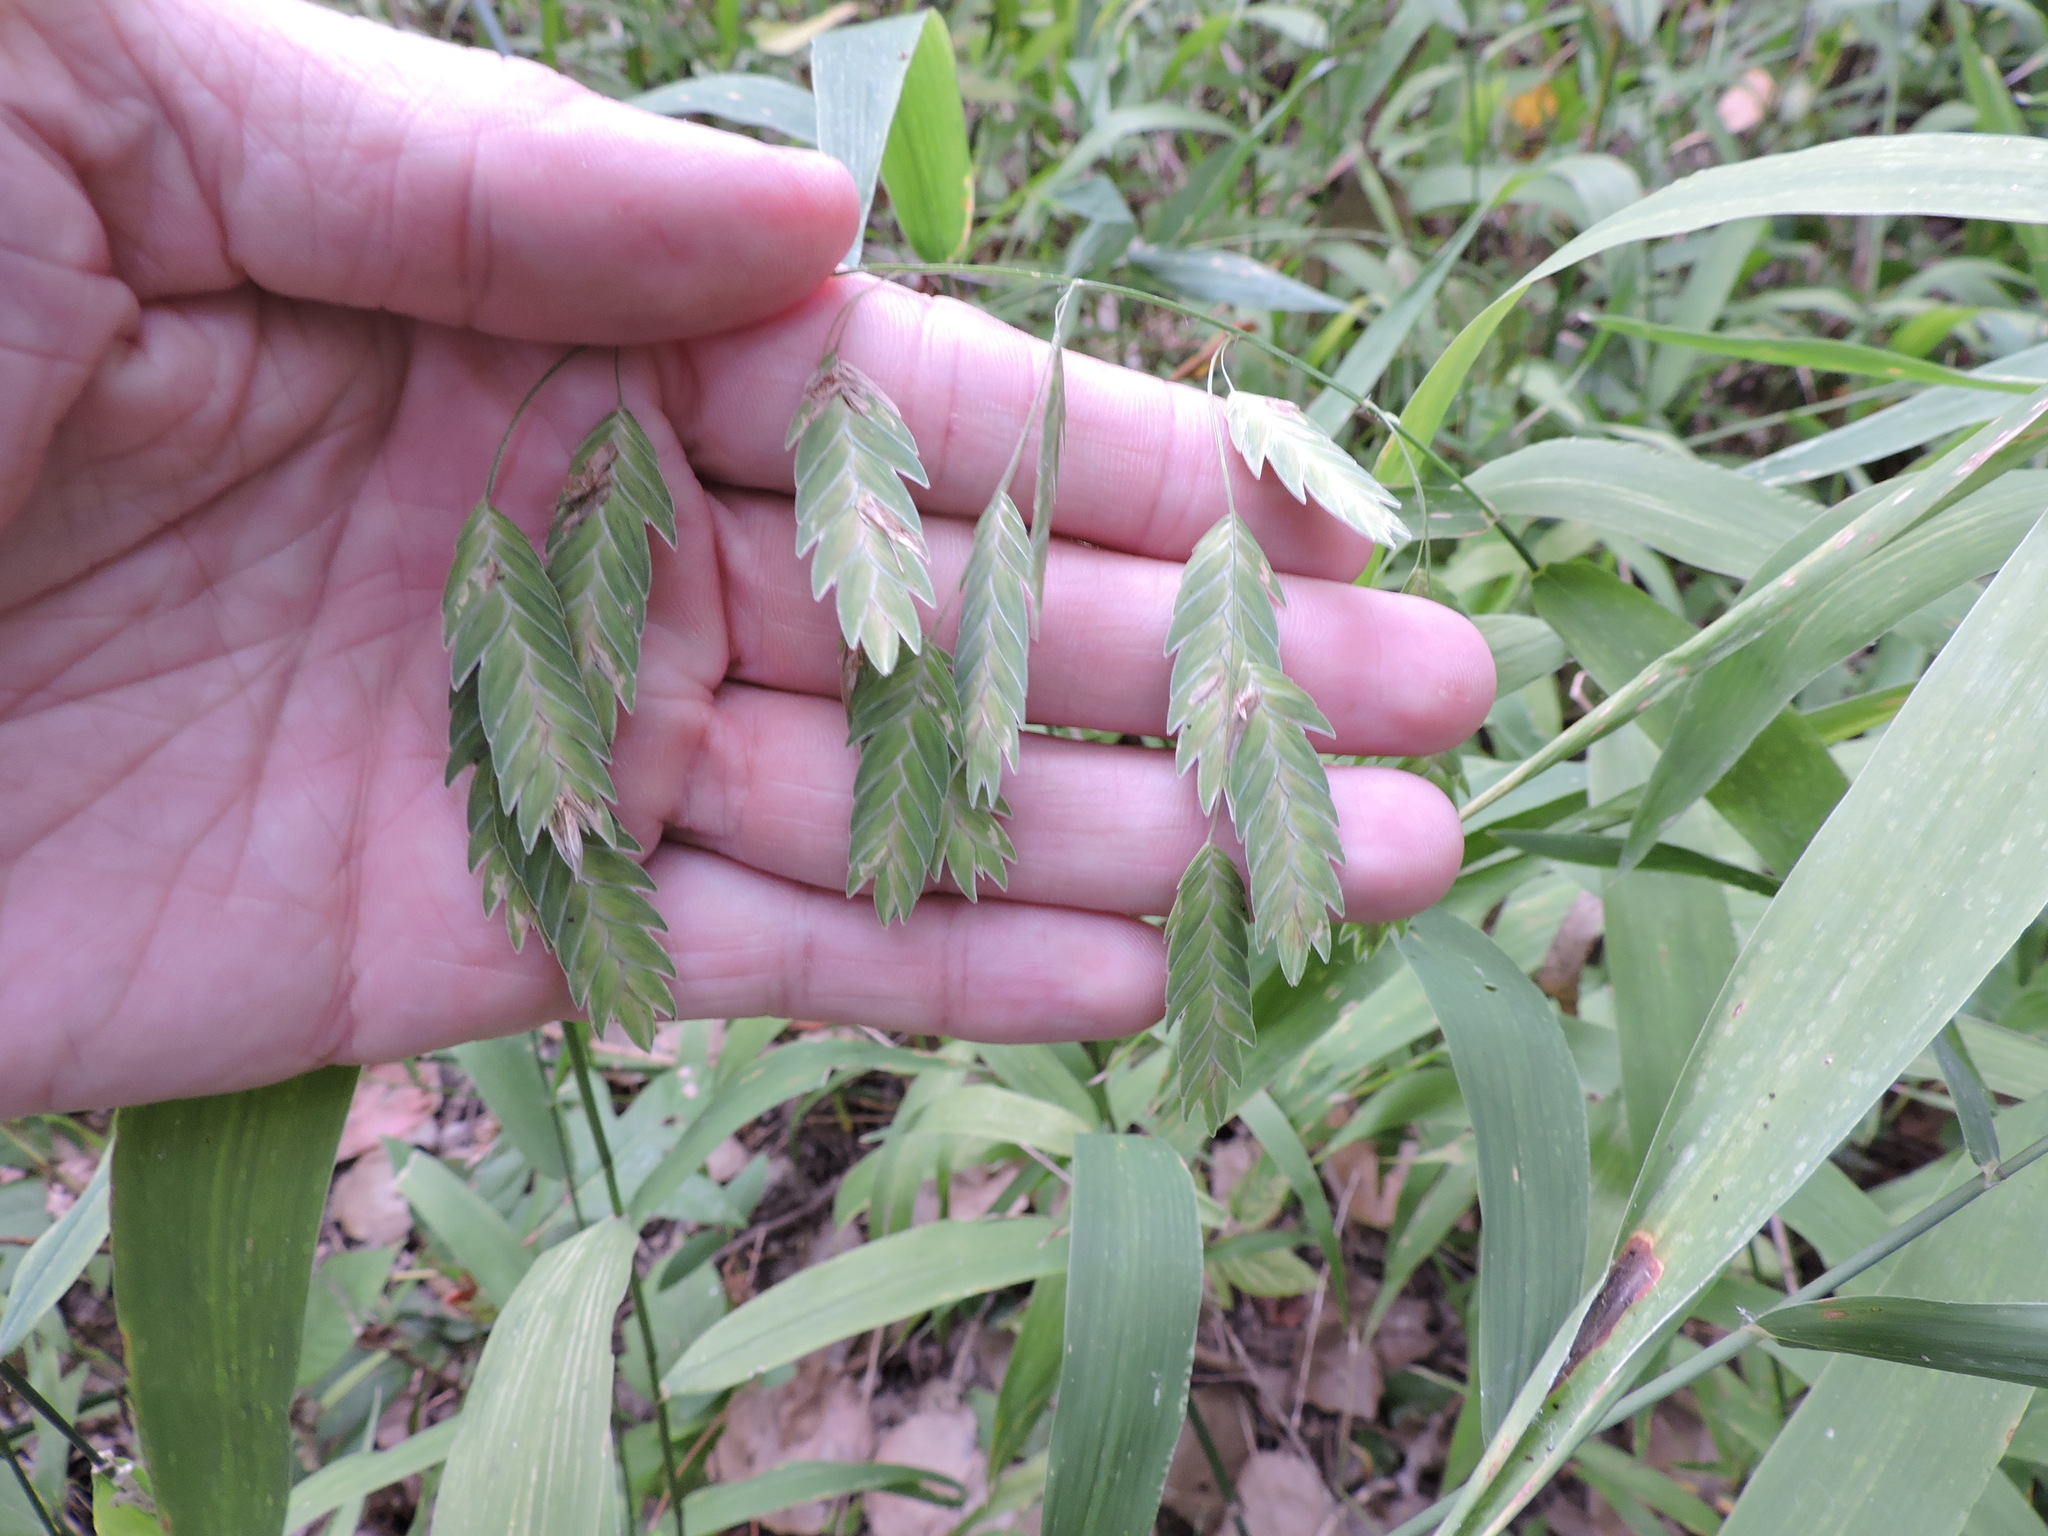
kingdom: Plantae
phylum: Tracheophyta
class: Liliopsida
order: Poales
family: Poaceae
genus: Chasmanthium
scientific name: Chasmanthium latifolium
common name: Broad-leaved chasmanthium
